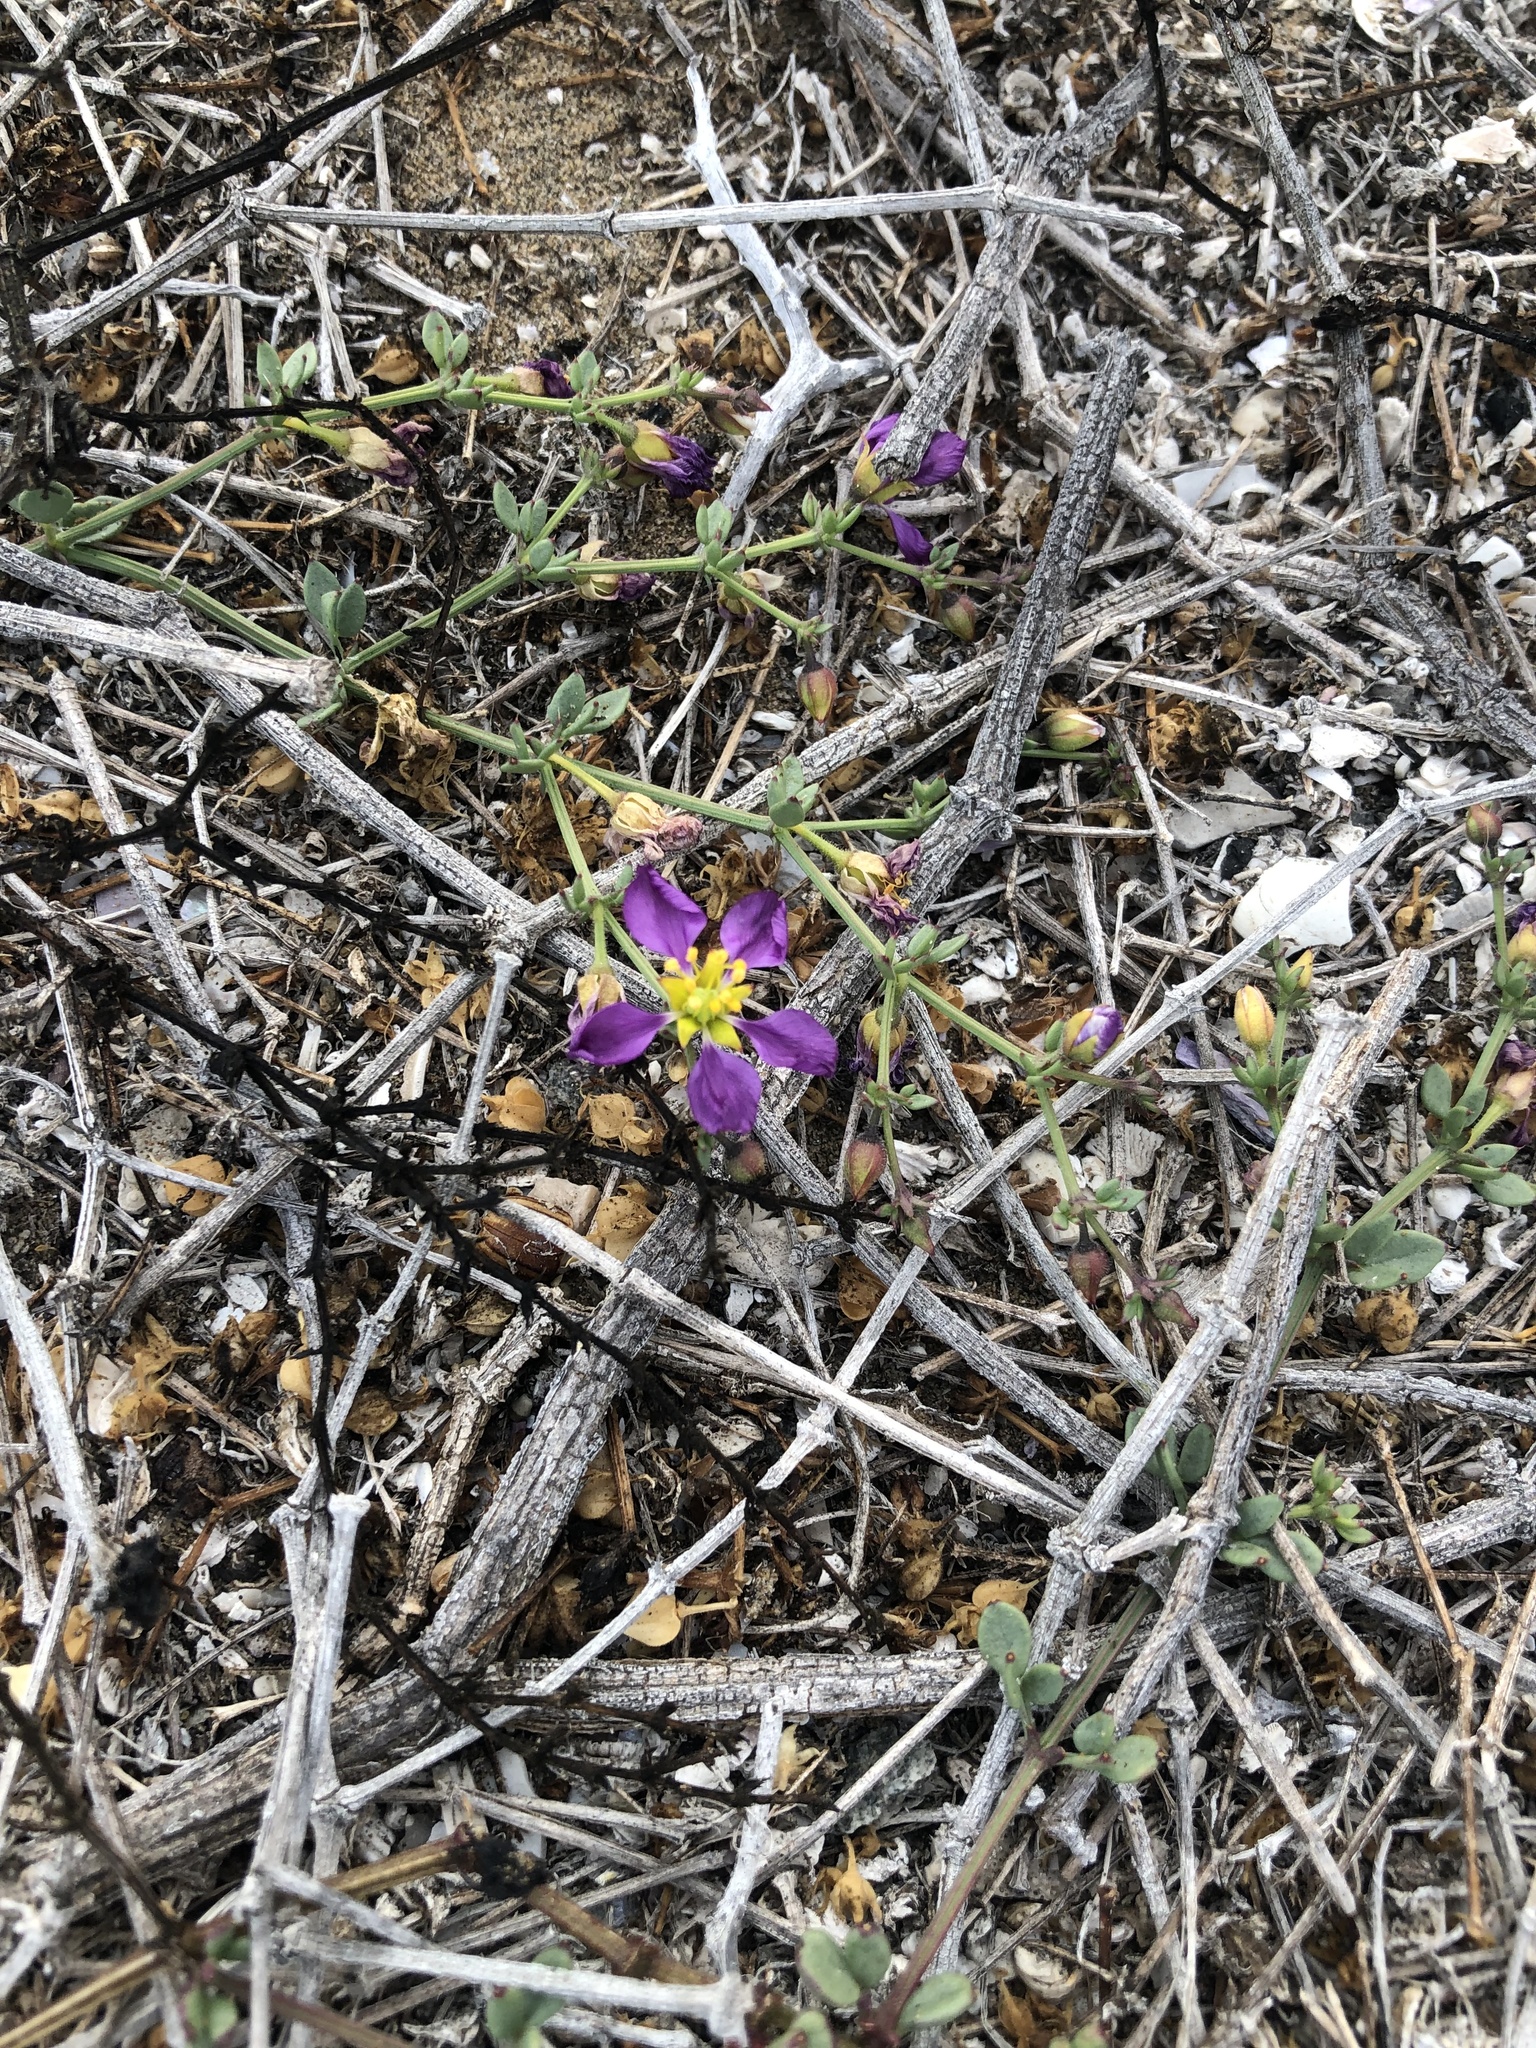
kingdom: Plantae
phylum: Tracheophyta
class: Magnoliopsida
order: Zygophyllales
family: Zygophyllaceae
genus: Fagonia
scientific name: Fagonia chilensis
